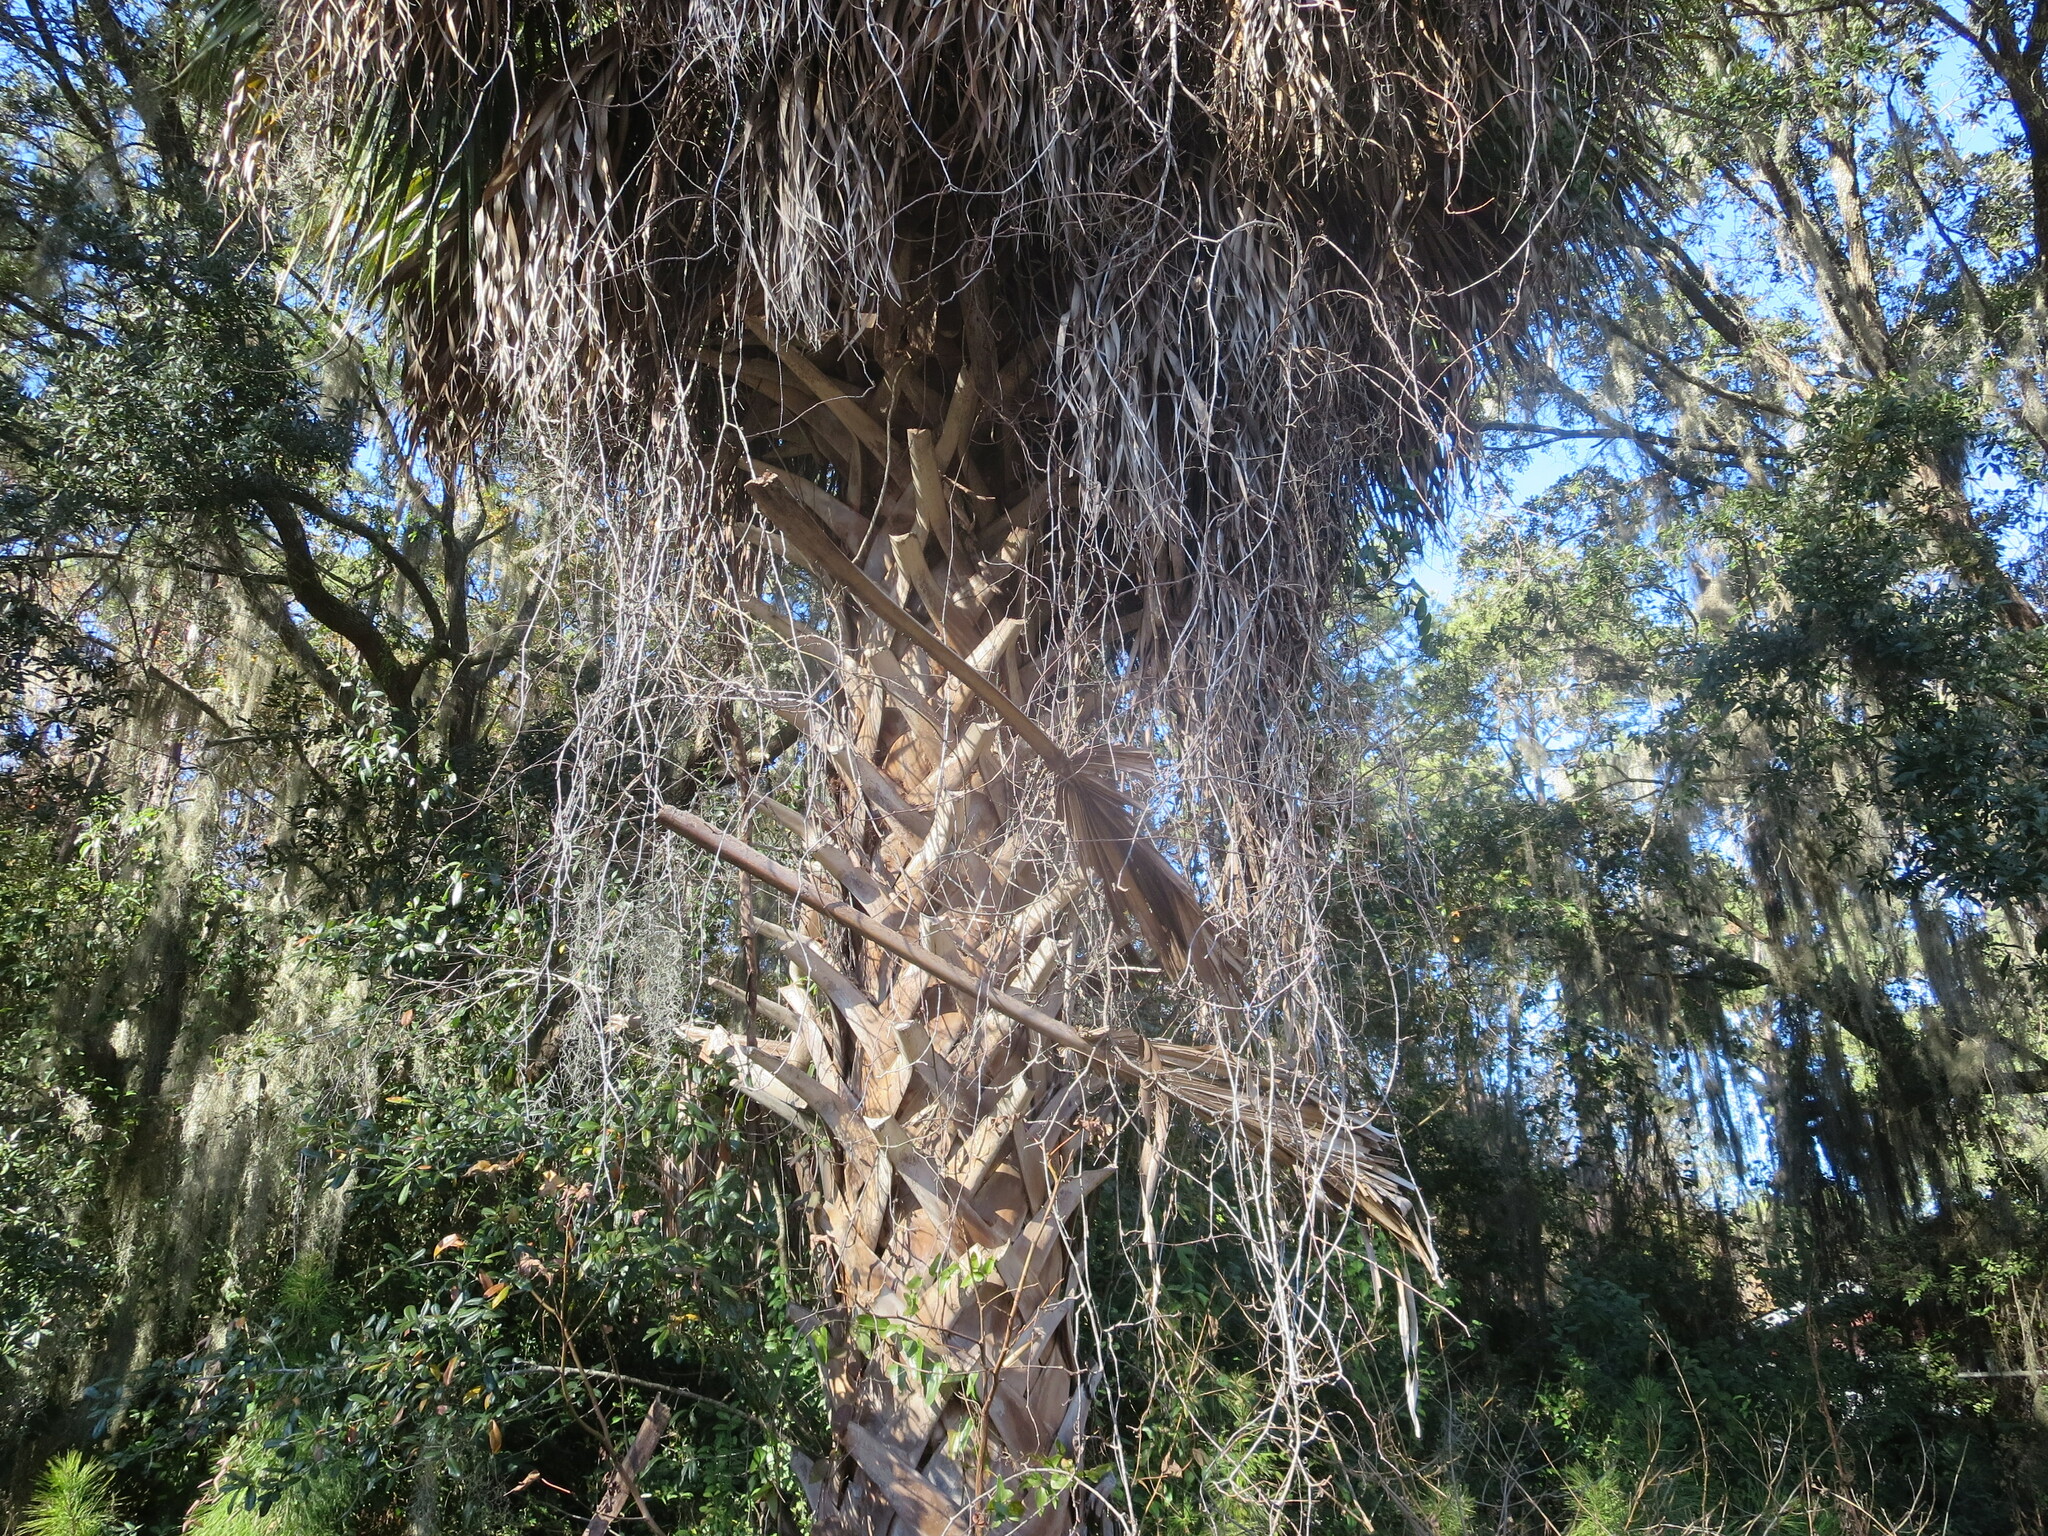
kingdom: Plantae
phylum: Tracheophyta
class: Liliopsida
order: Arecales
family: Arecaceae
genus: Sabal
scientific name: Sabal palmetto
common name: Blue palmetto
